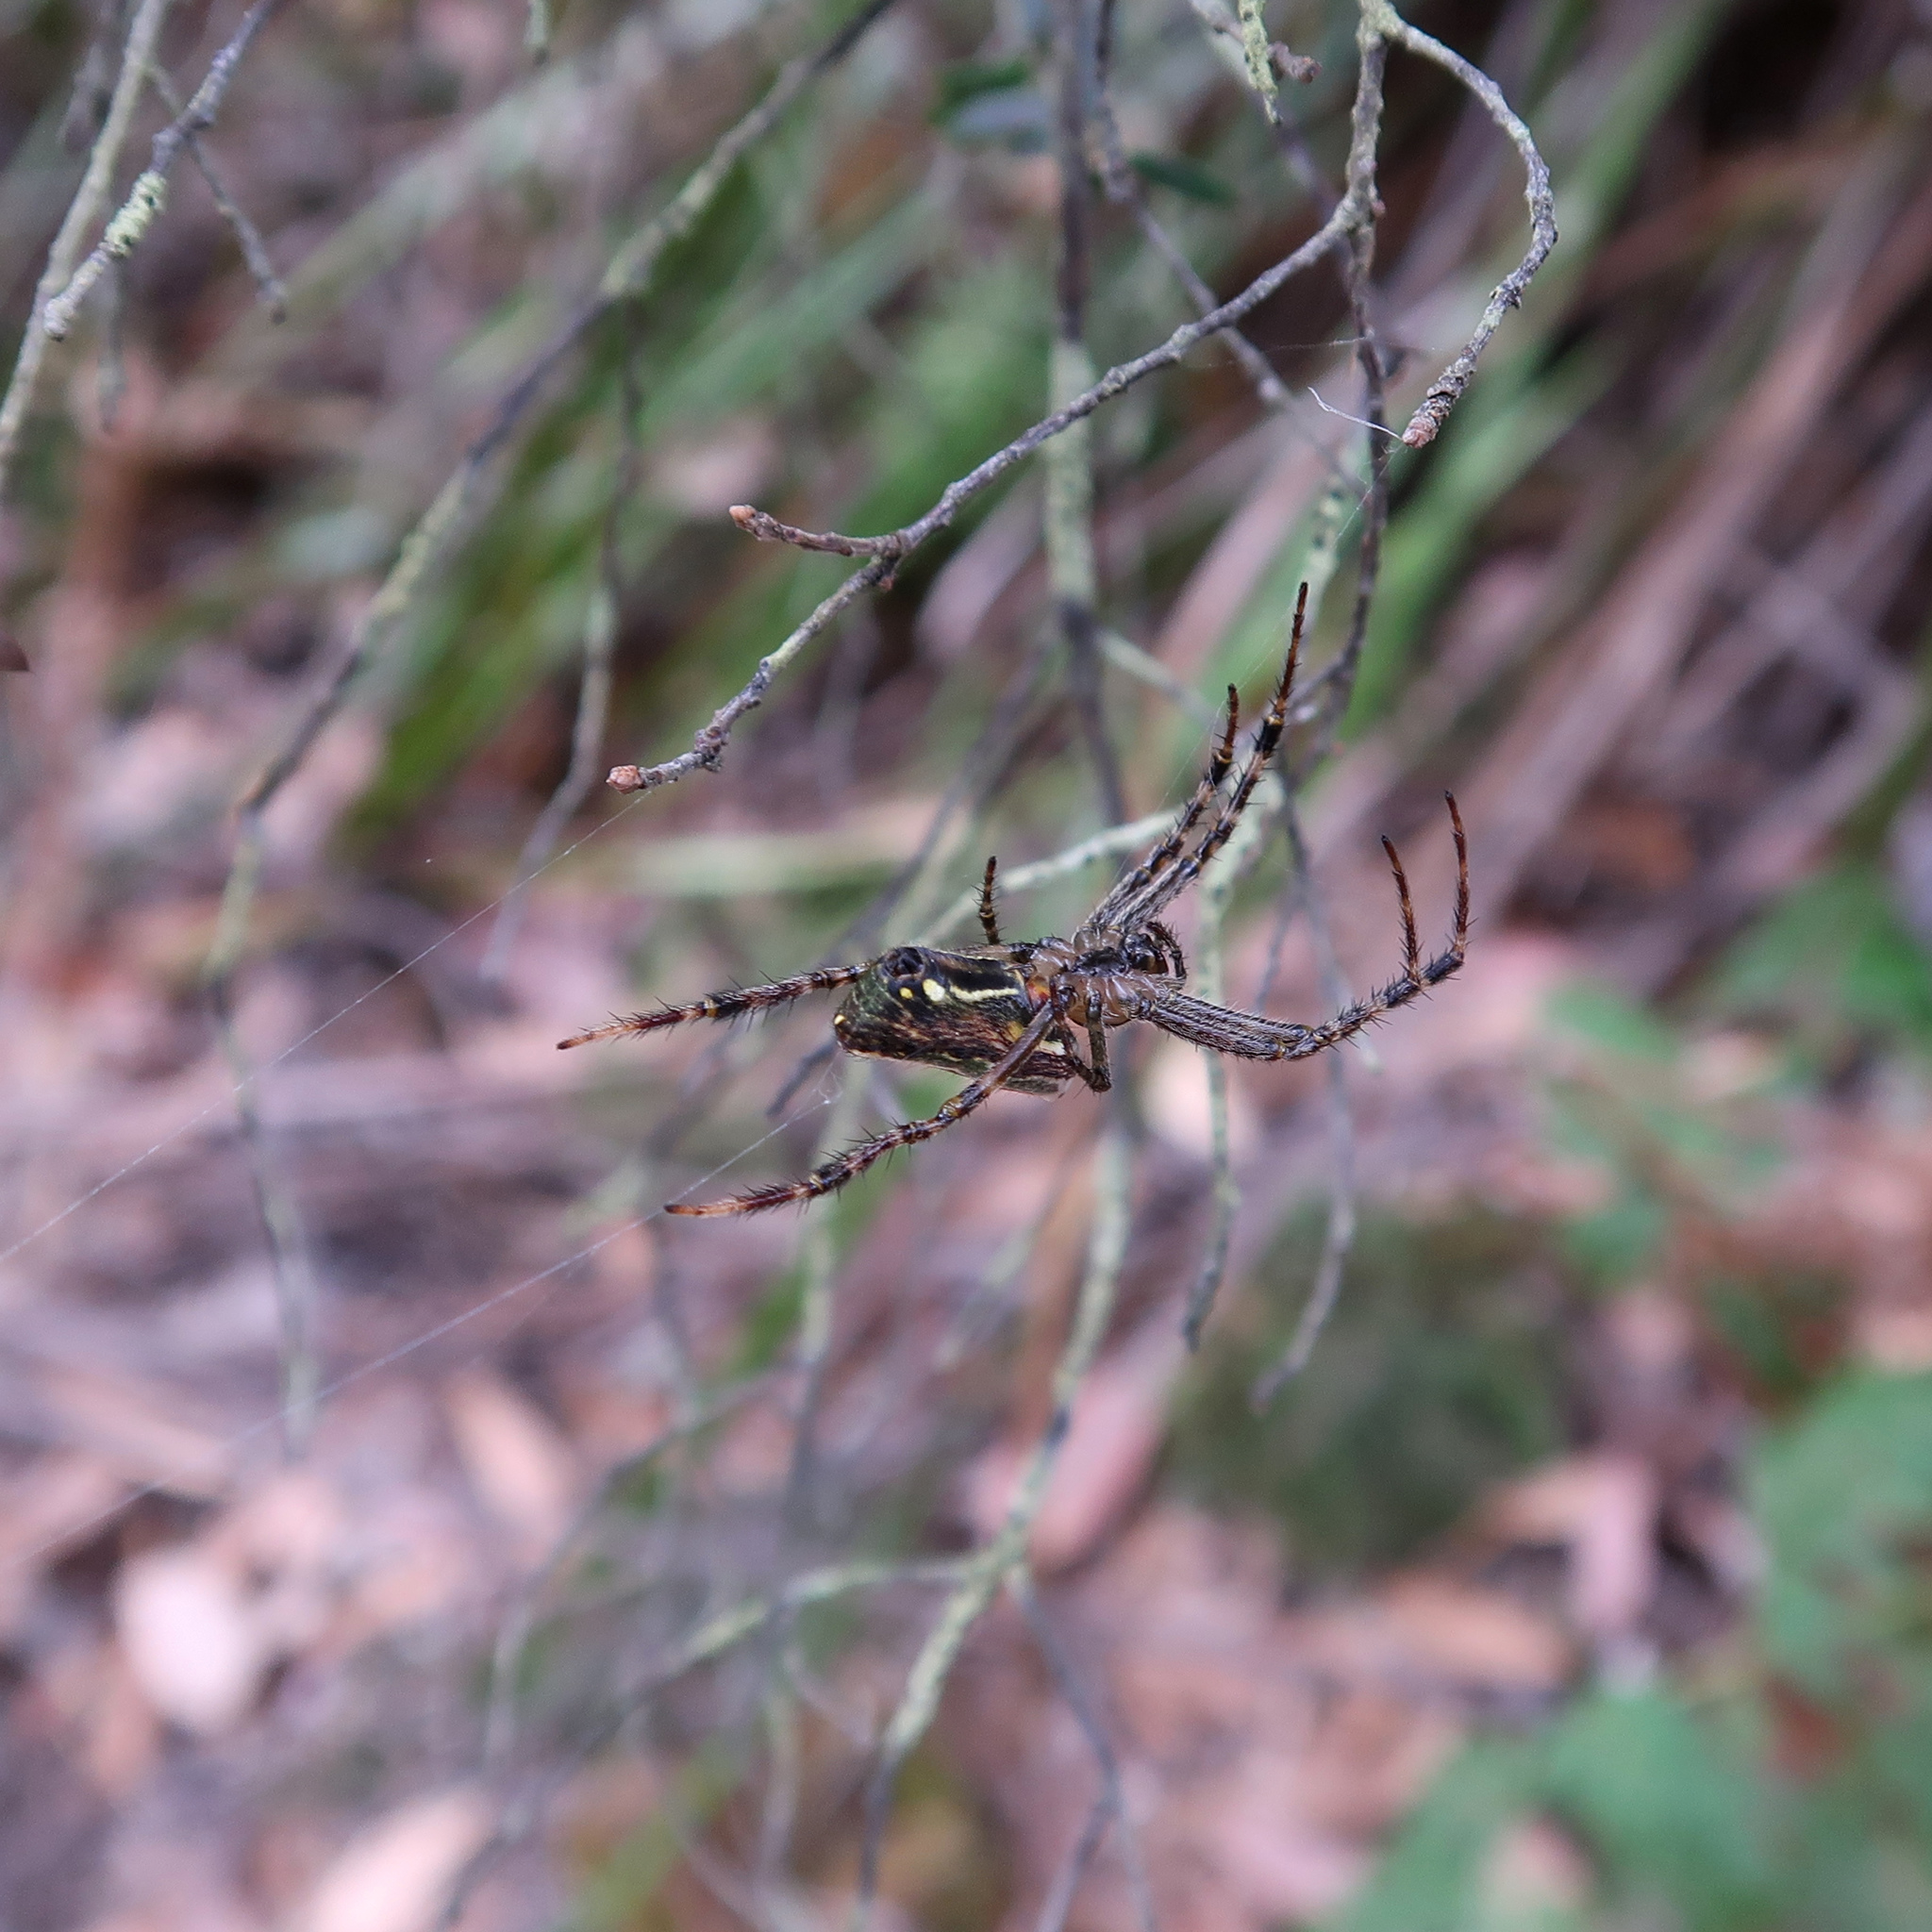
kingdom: Animalia
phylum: Arthropoda
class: Arachnida
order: Araneae
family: Araneidae
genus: Plebs
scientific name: Plebs bradleyi
